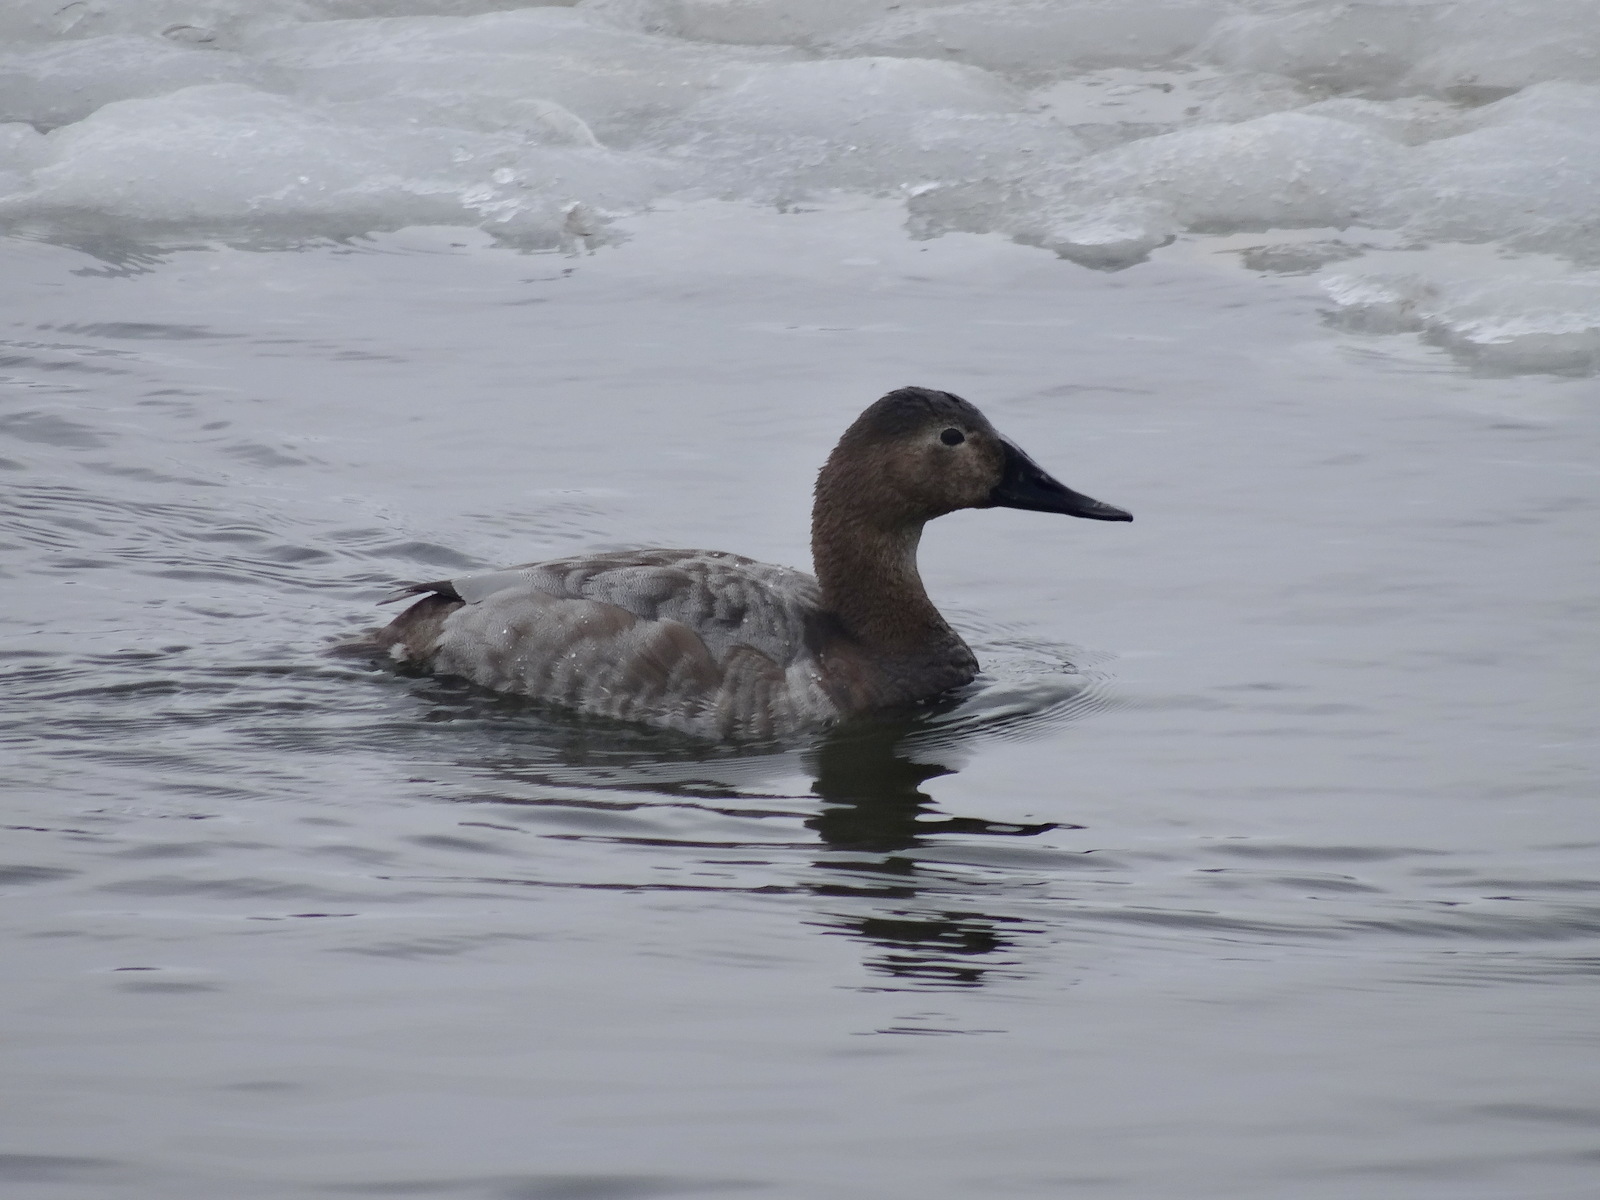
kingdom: Animalia
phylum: Chordata
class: Aves
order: Anseriformes
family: Anatidae
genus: Aythya
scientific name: Aythya valisineria
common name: Canvasback
